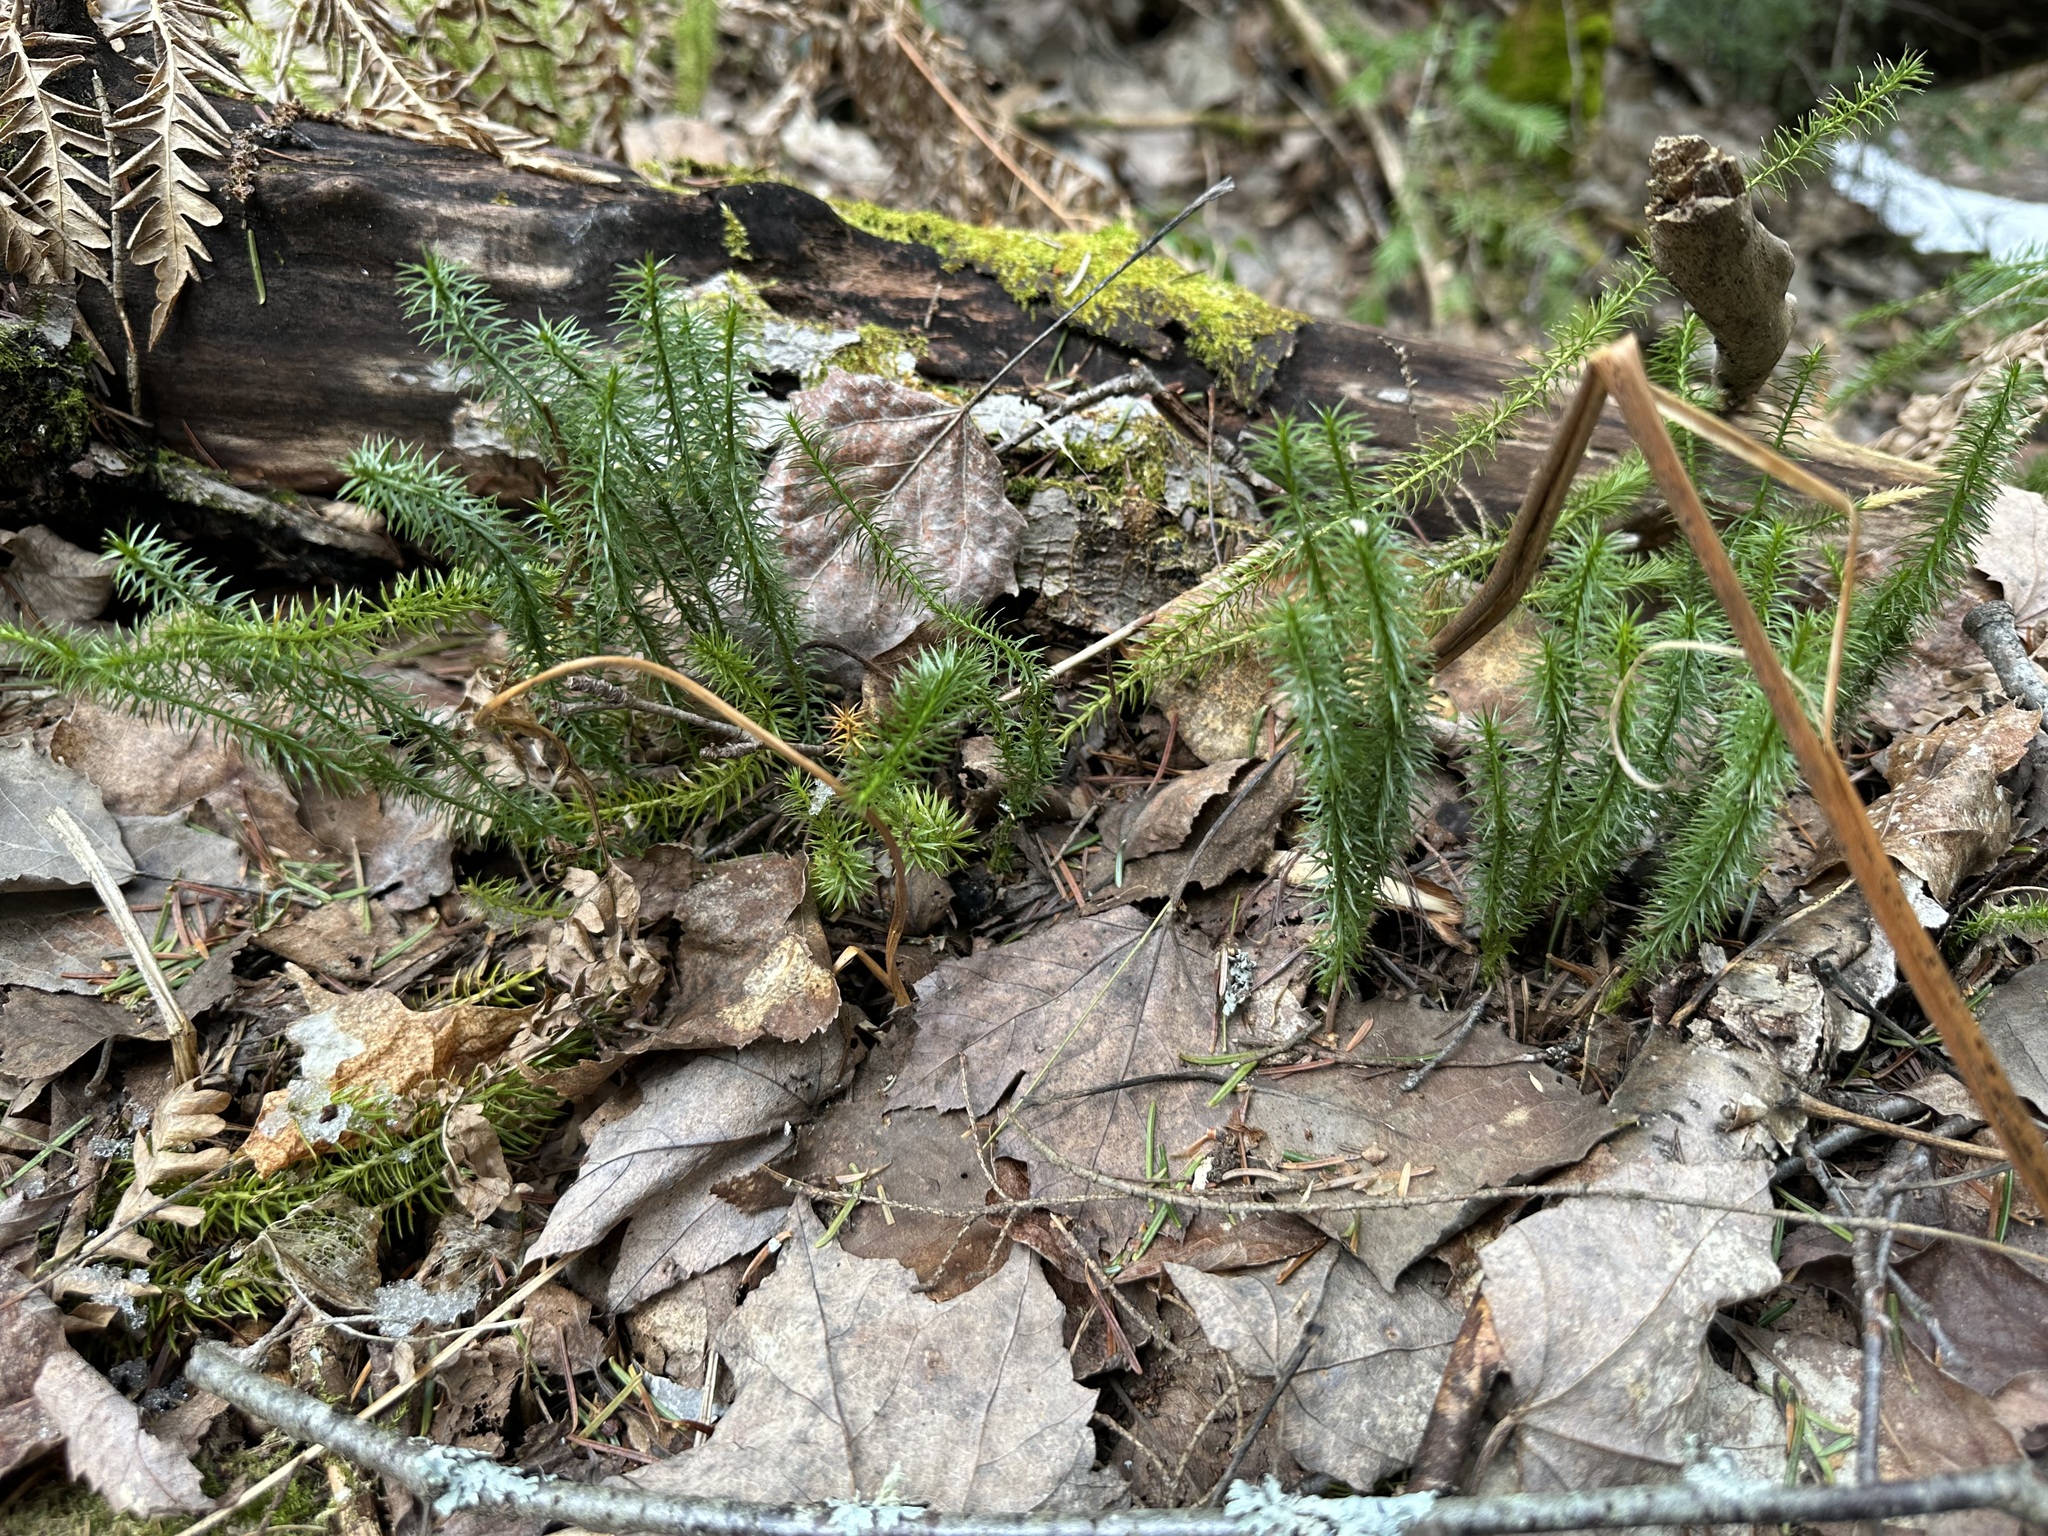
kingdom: Plantae
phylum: Tracheophyta
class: Lycopodiopsida
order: Lycopodiales
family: Lycopodiaceae
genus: Spinulum
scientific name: Spinulum annotinum
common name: Interrupted club-moss
